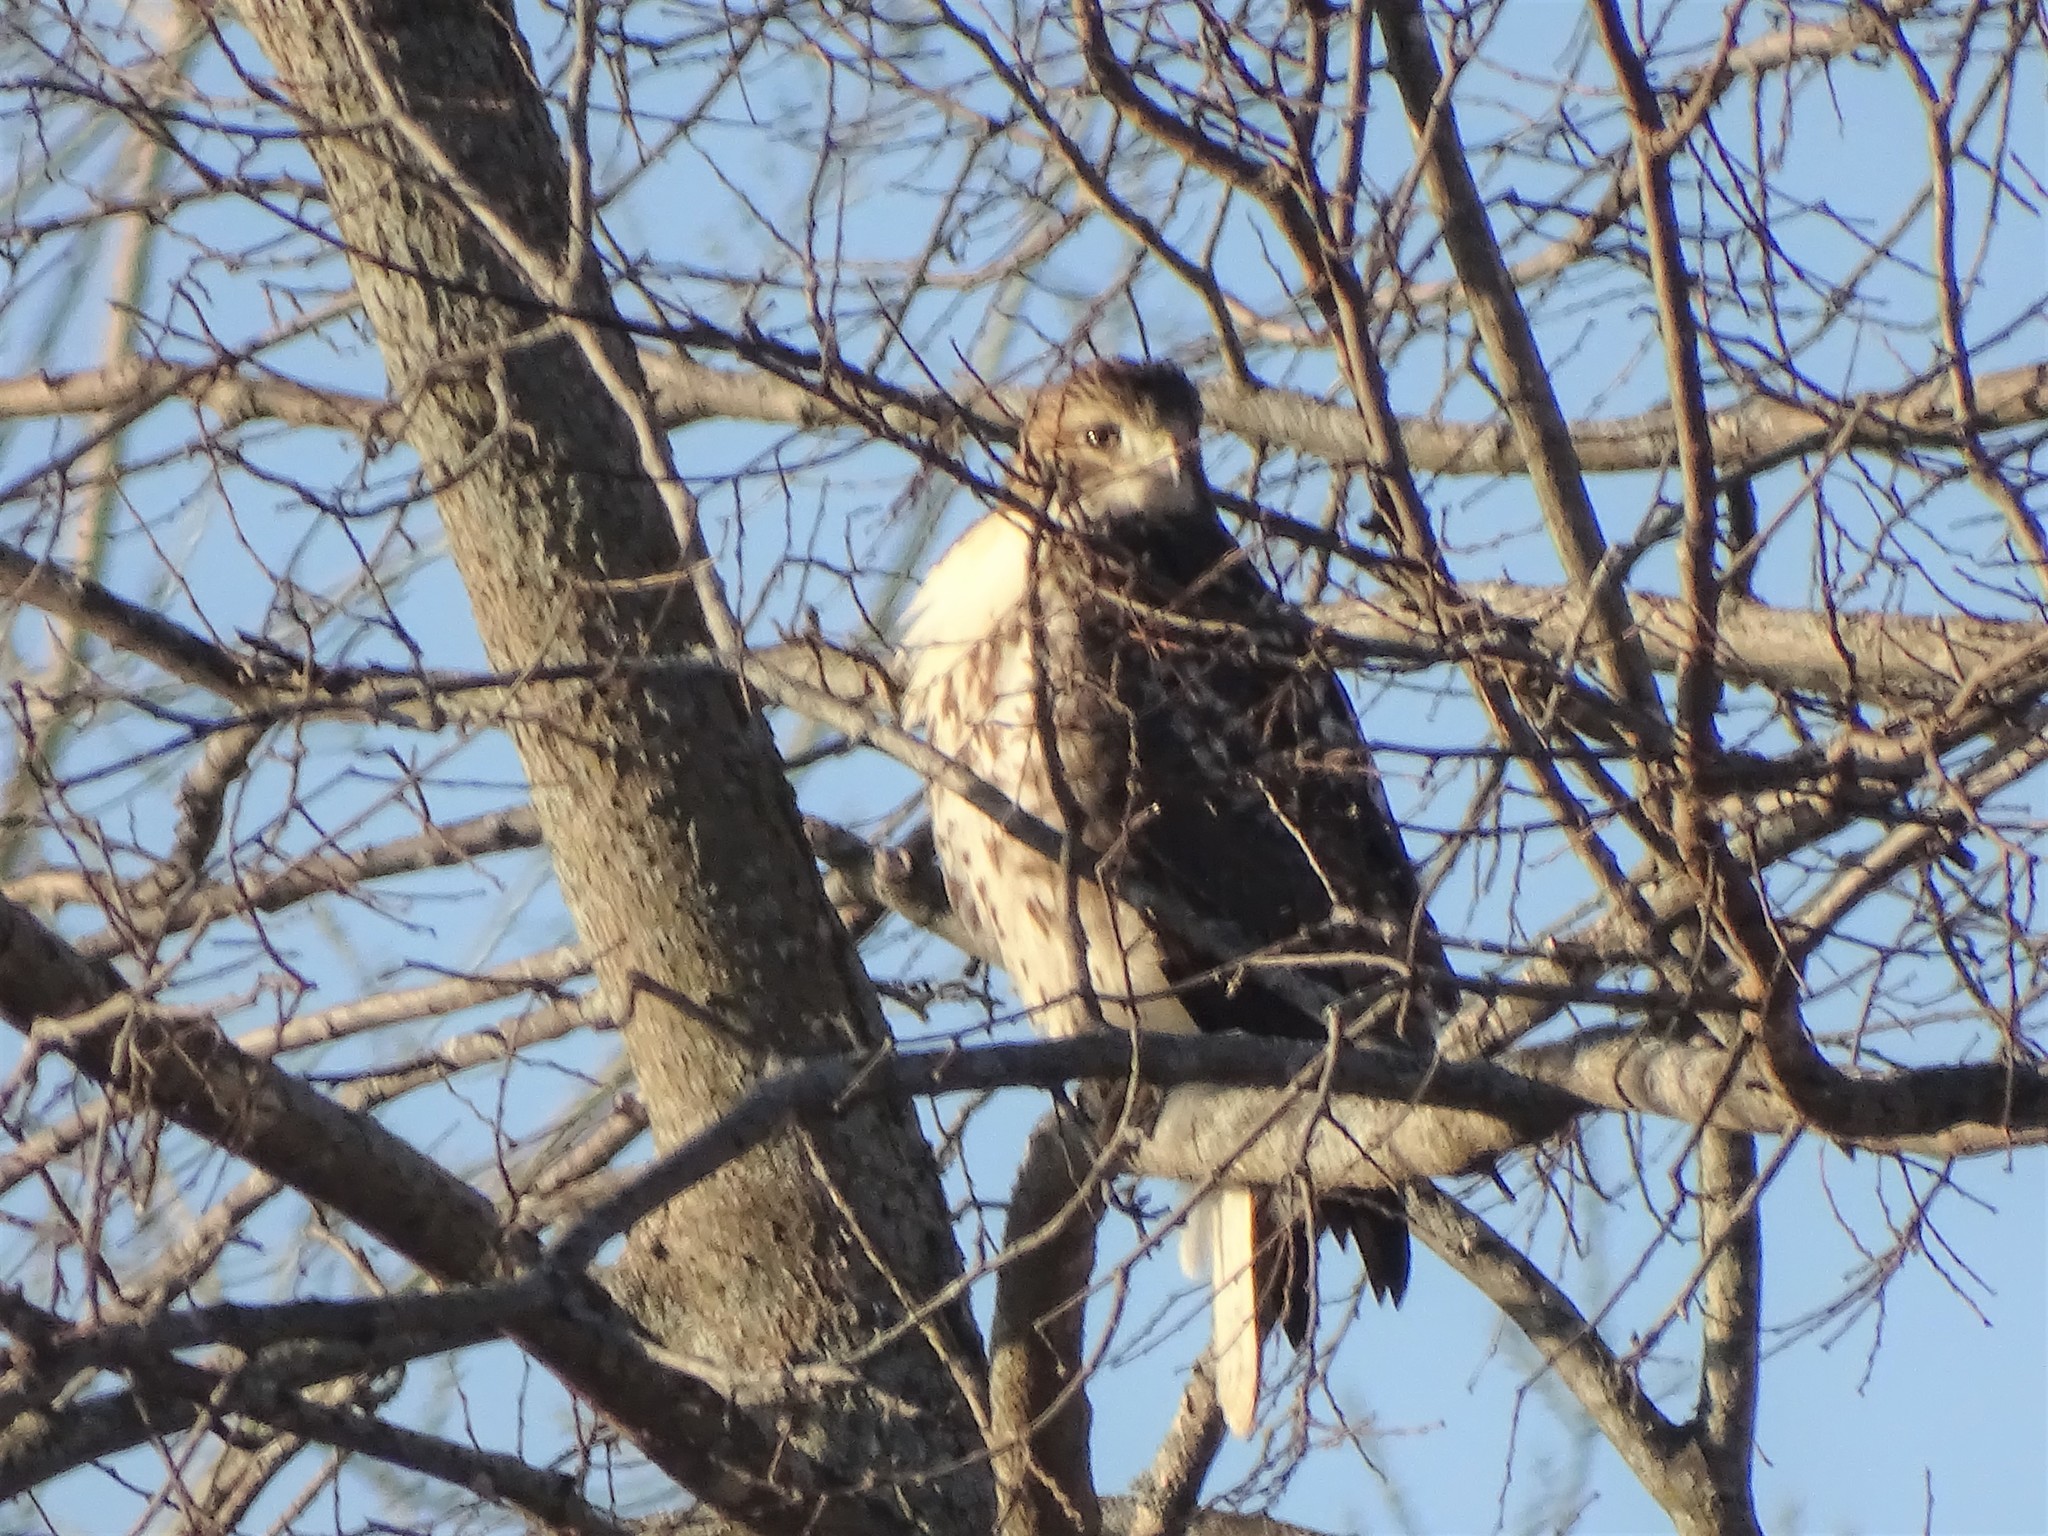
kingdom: Animalia
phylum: Chordata
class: Aves
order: Accipitriformes
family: Accipitridae
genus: Buteo
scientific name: Buteo jamaicensis
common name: Red-tailed hawk
